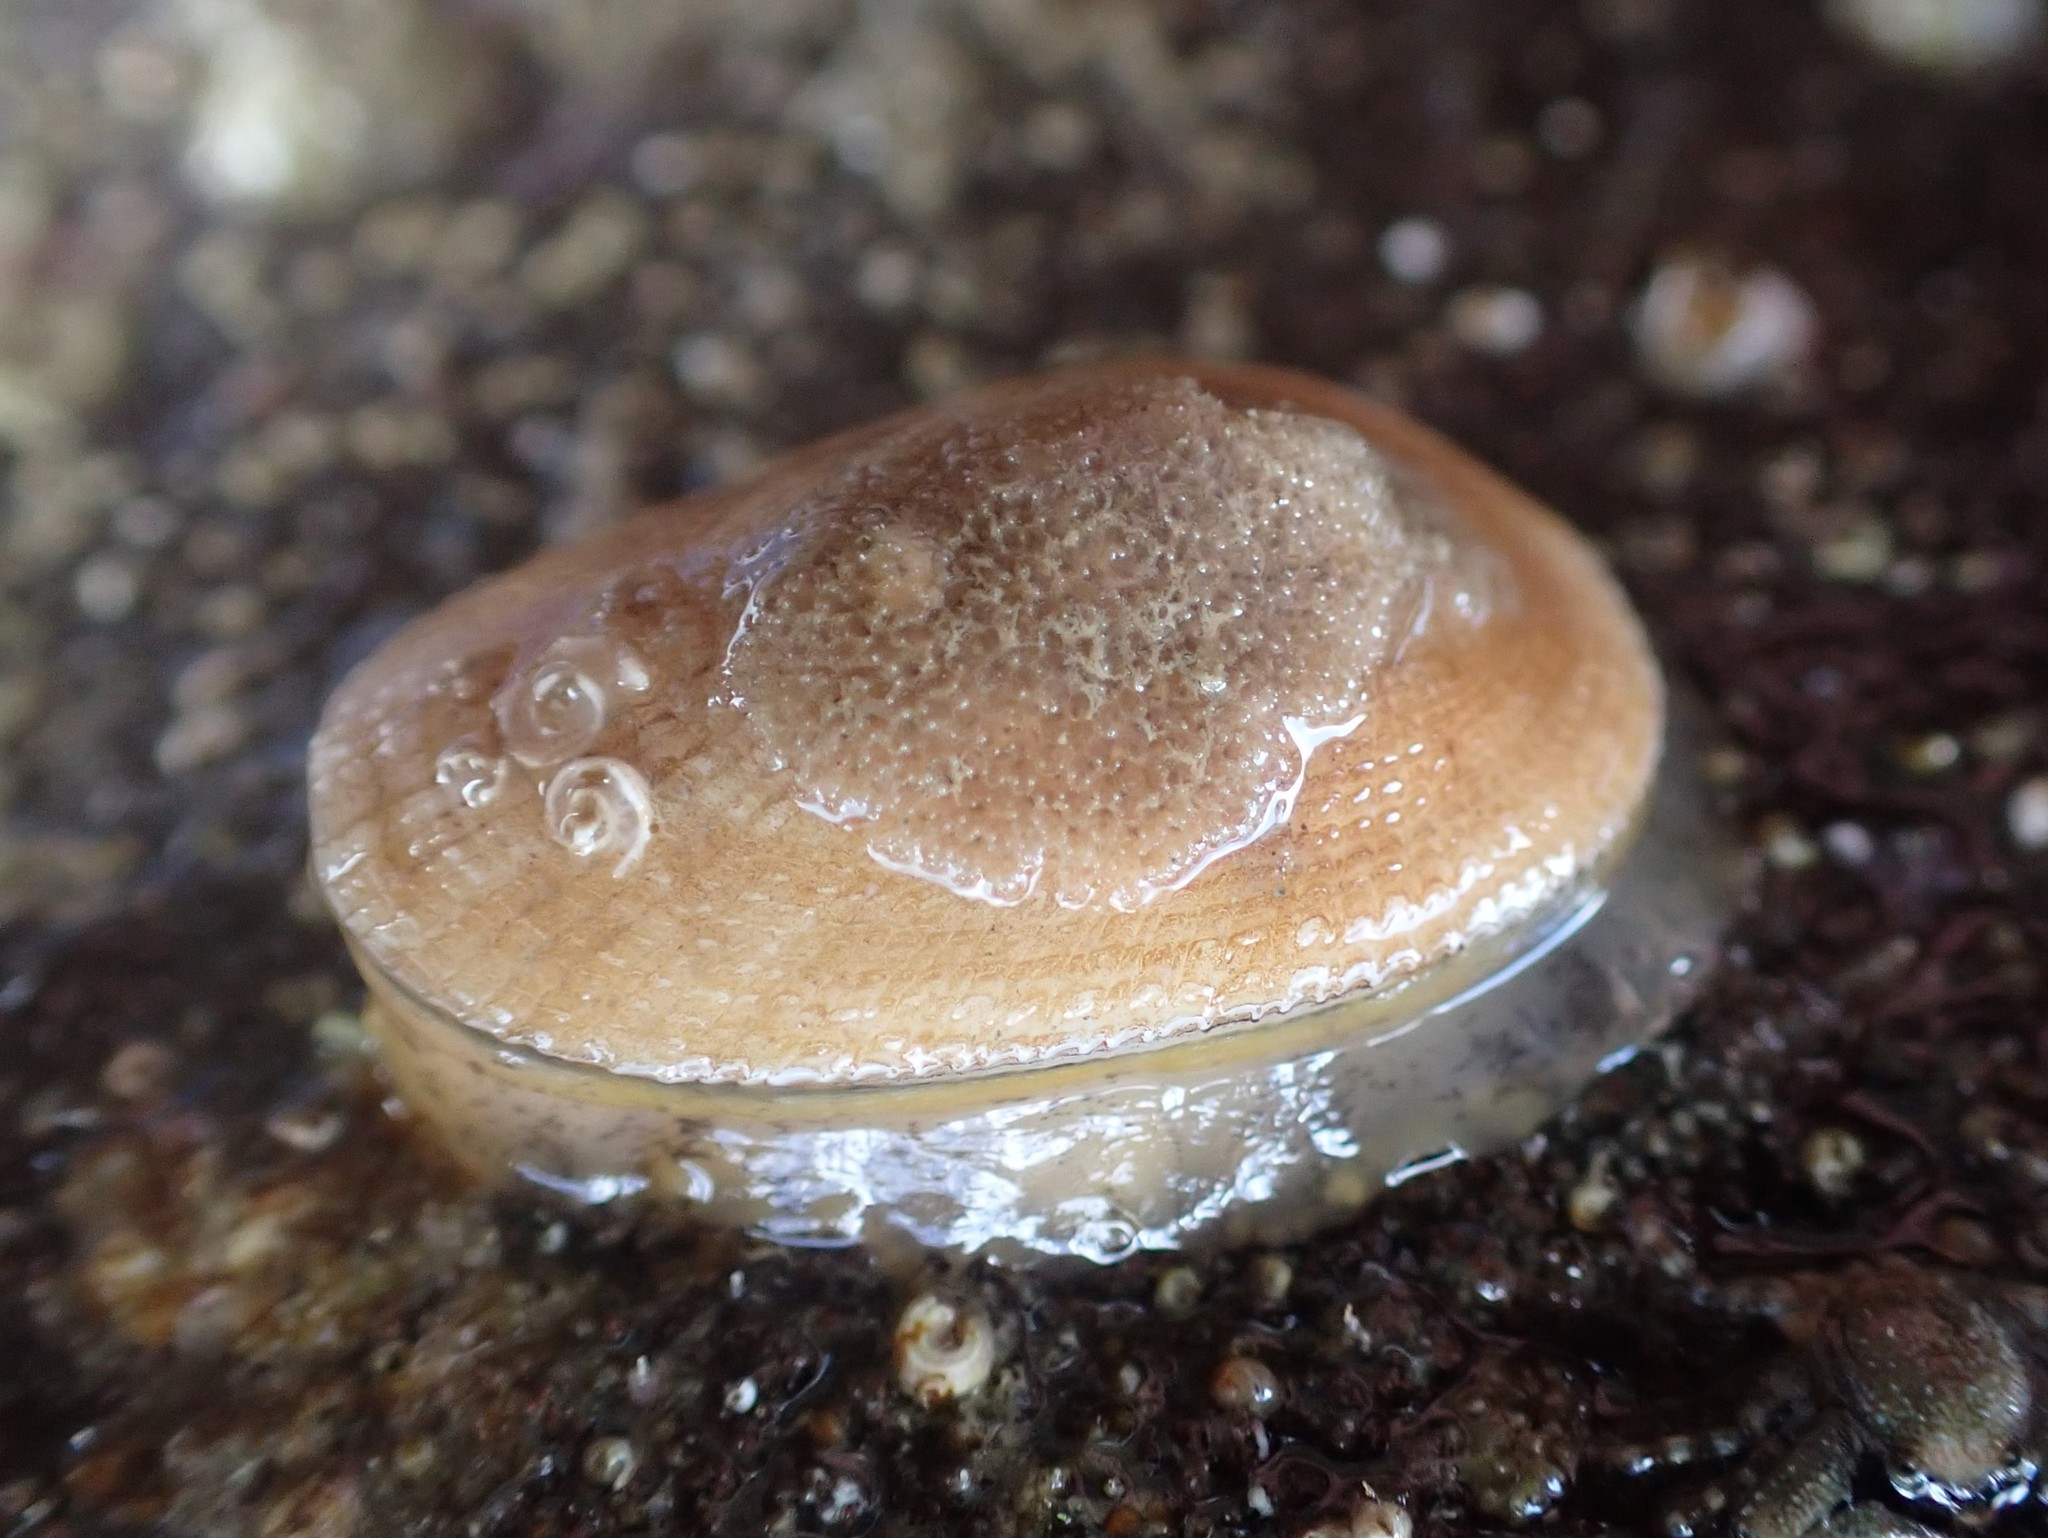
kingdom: Animalia
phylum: Mollusca
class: Gastropoda
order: Lepetellida
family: Fissurellidae
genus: Tugali
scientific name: Tugali elegans
